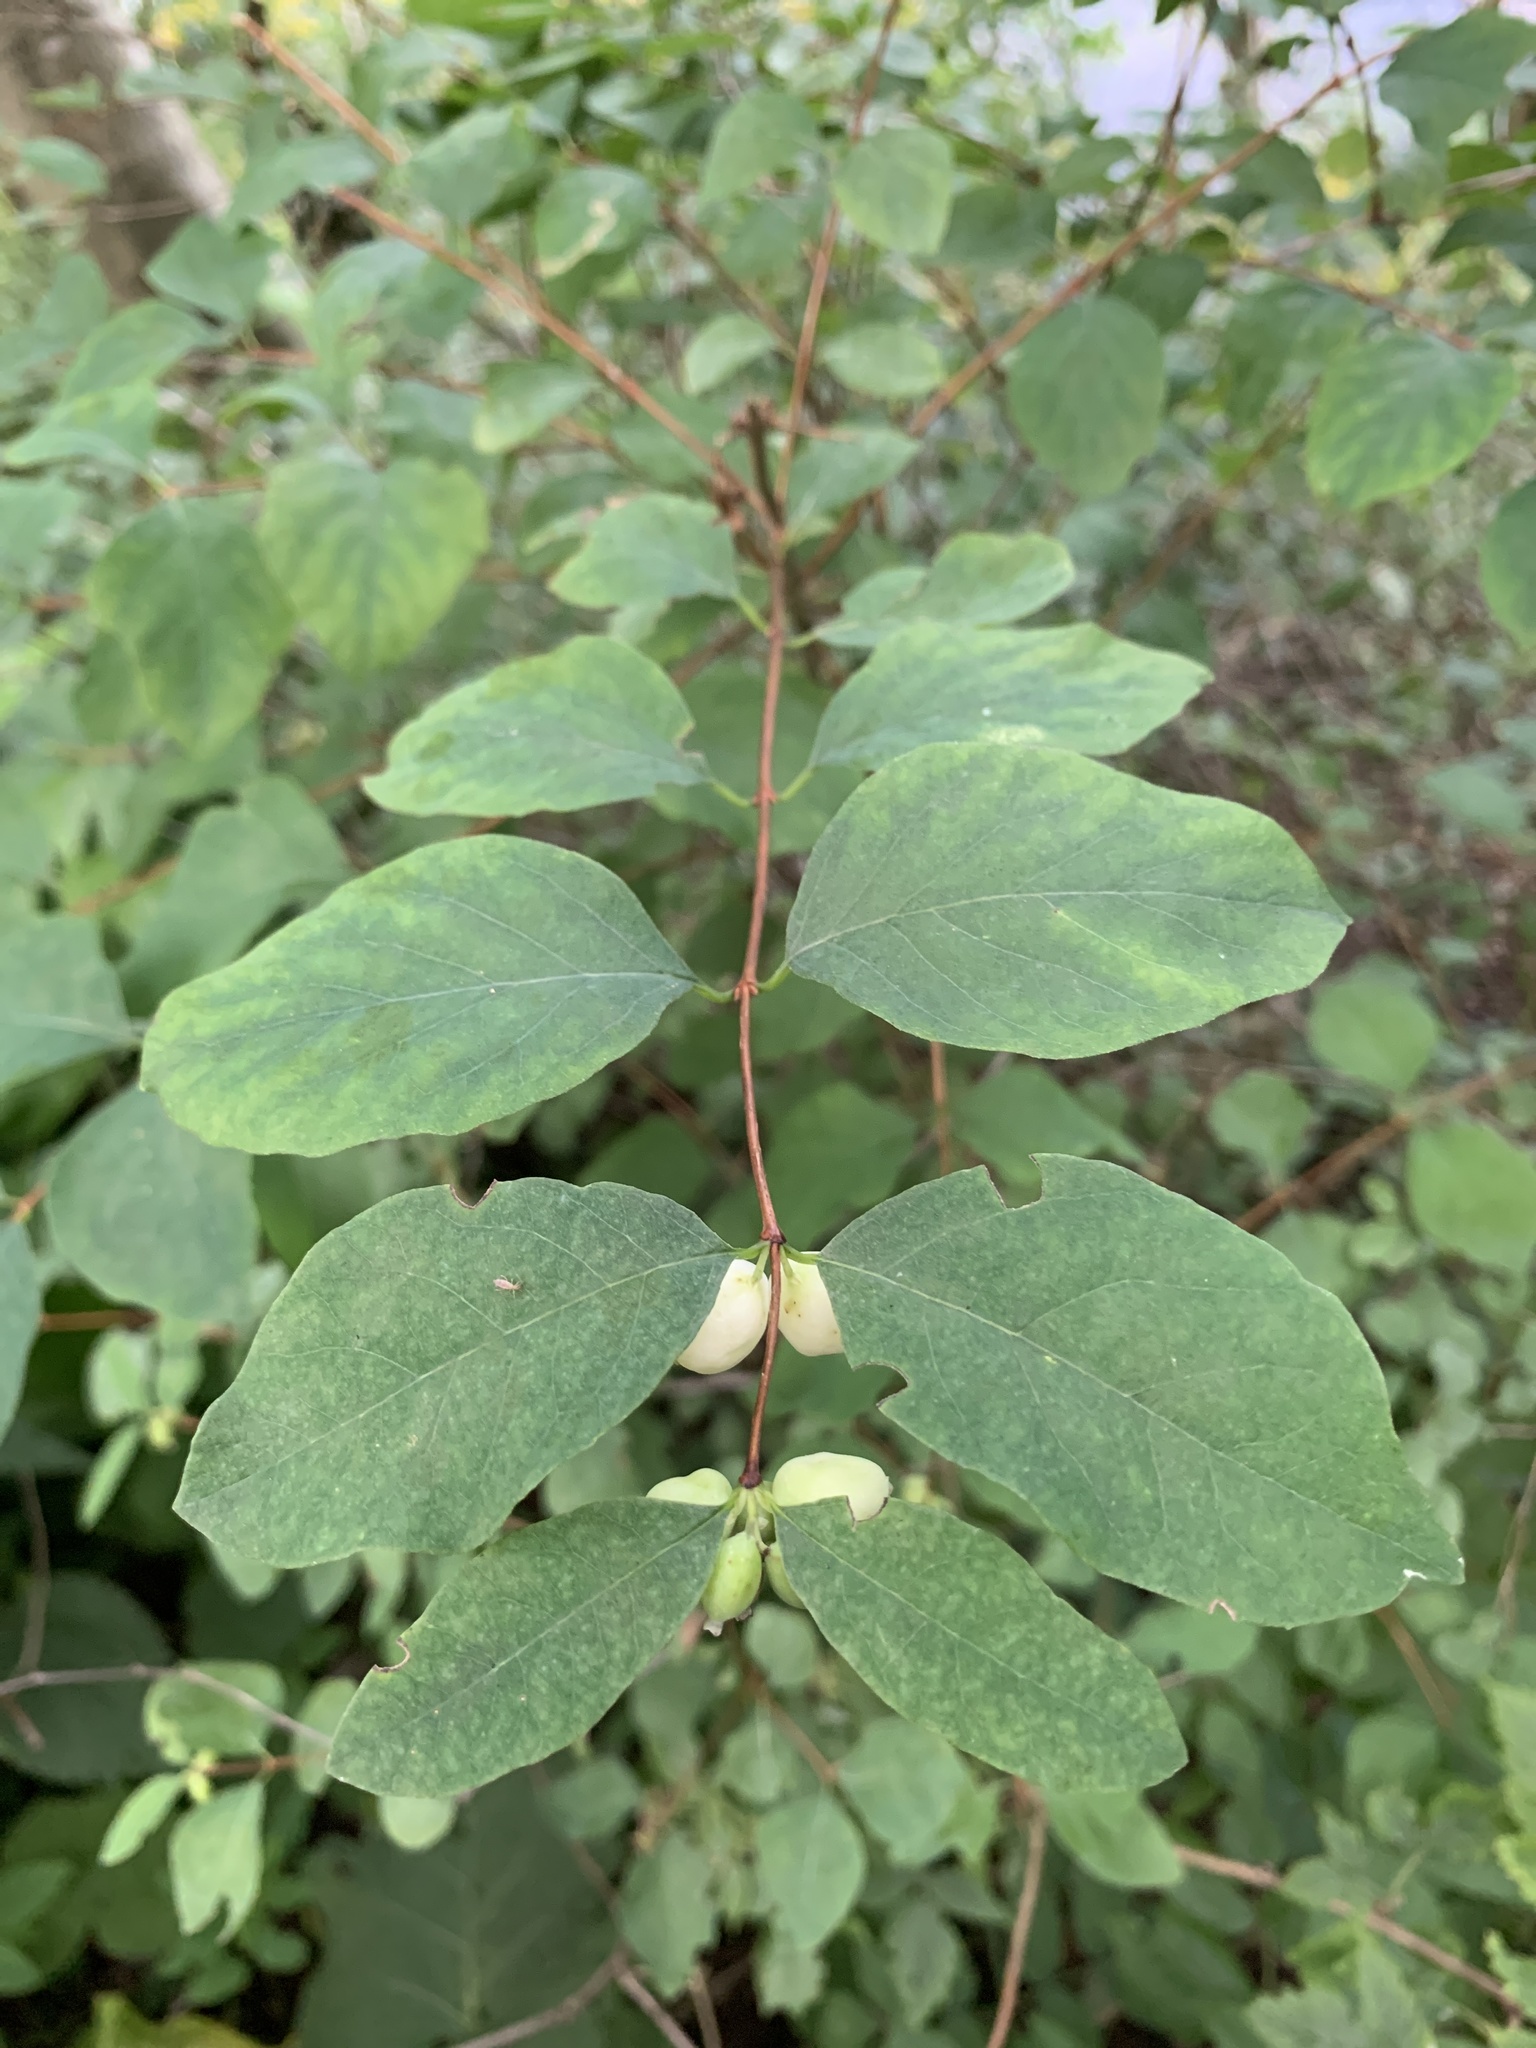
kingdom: Plantae
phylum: Tracheophyta
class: Magnoliopsida
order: Dipsacales
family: Caprifoliaceae
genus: Symphoricarpos
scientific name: Symphoricarpos albus
